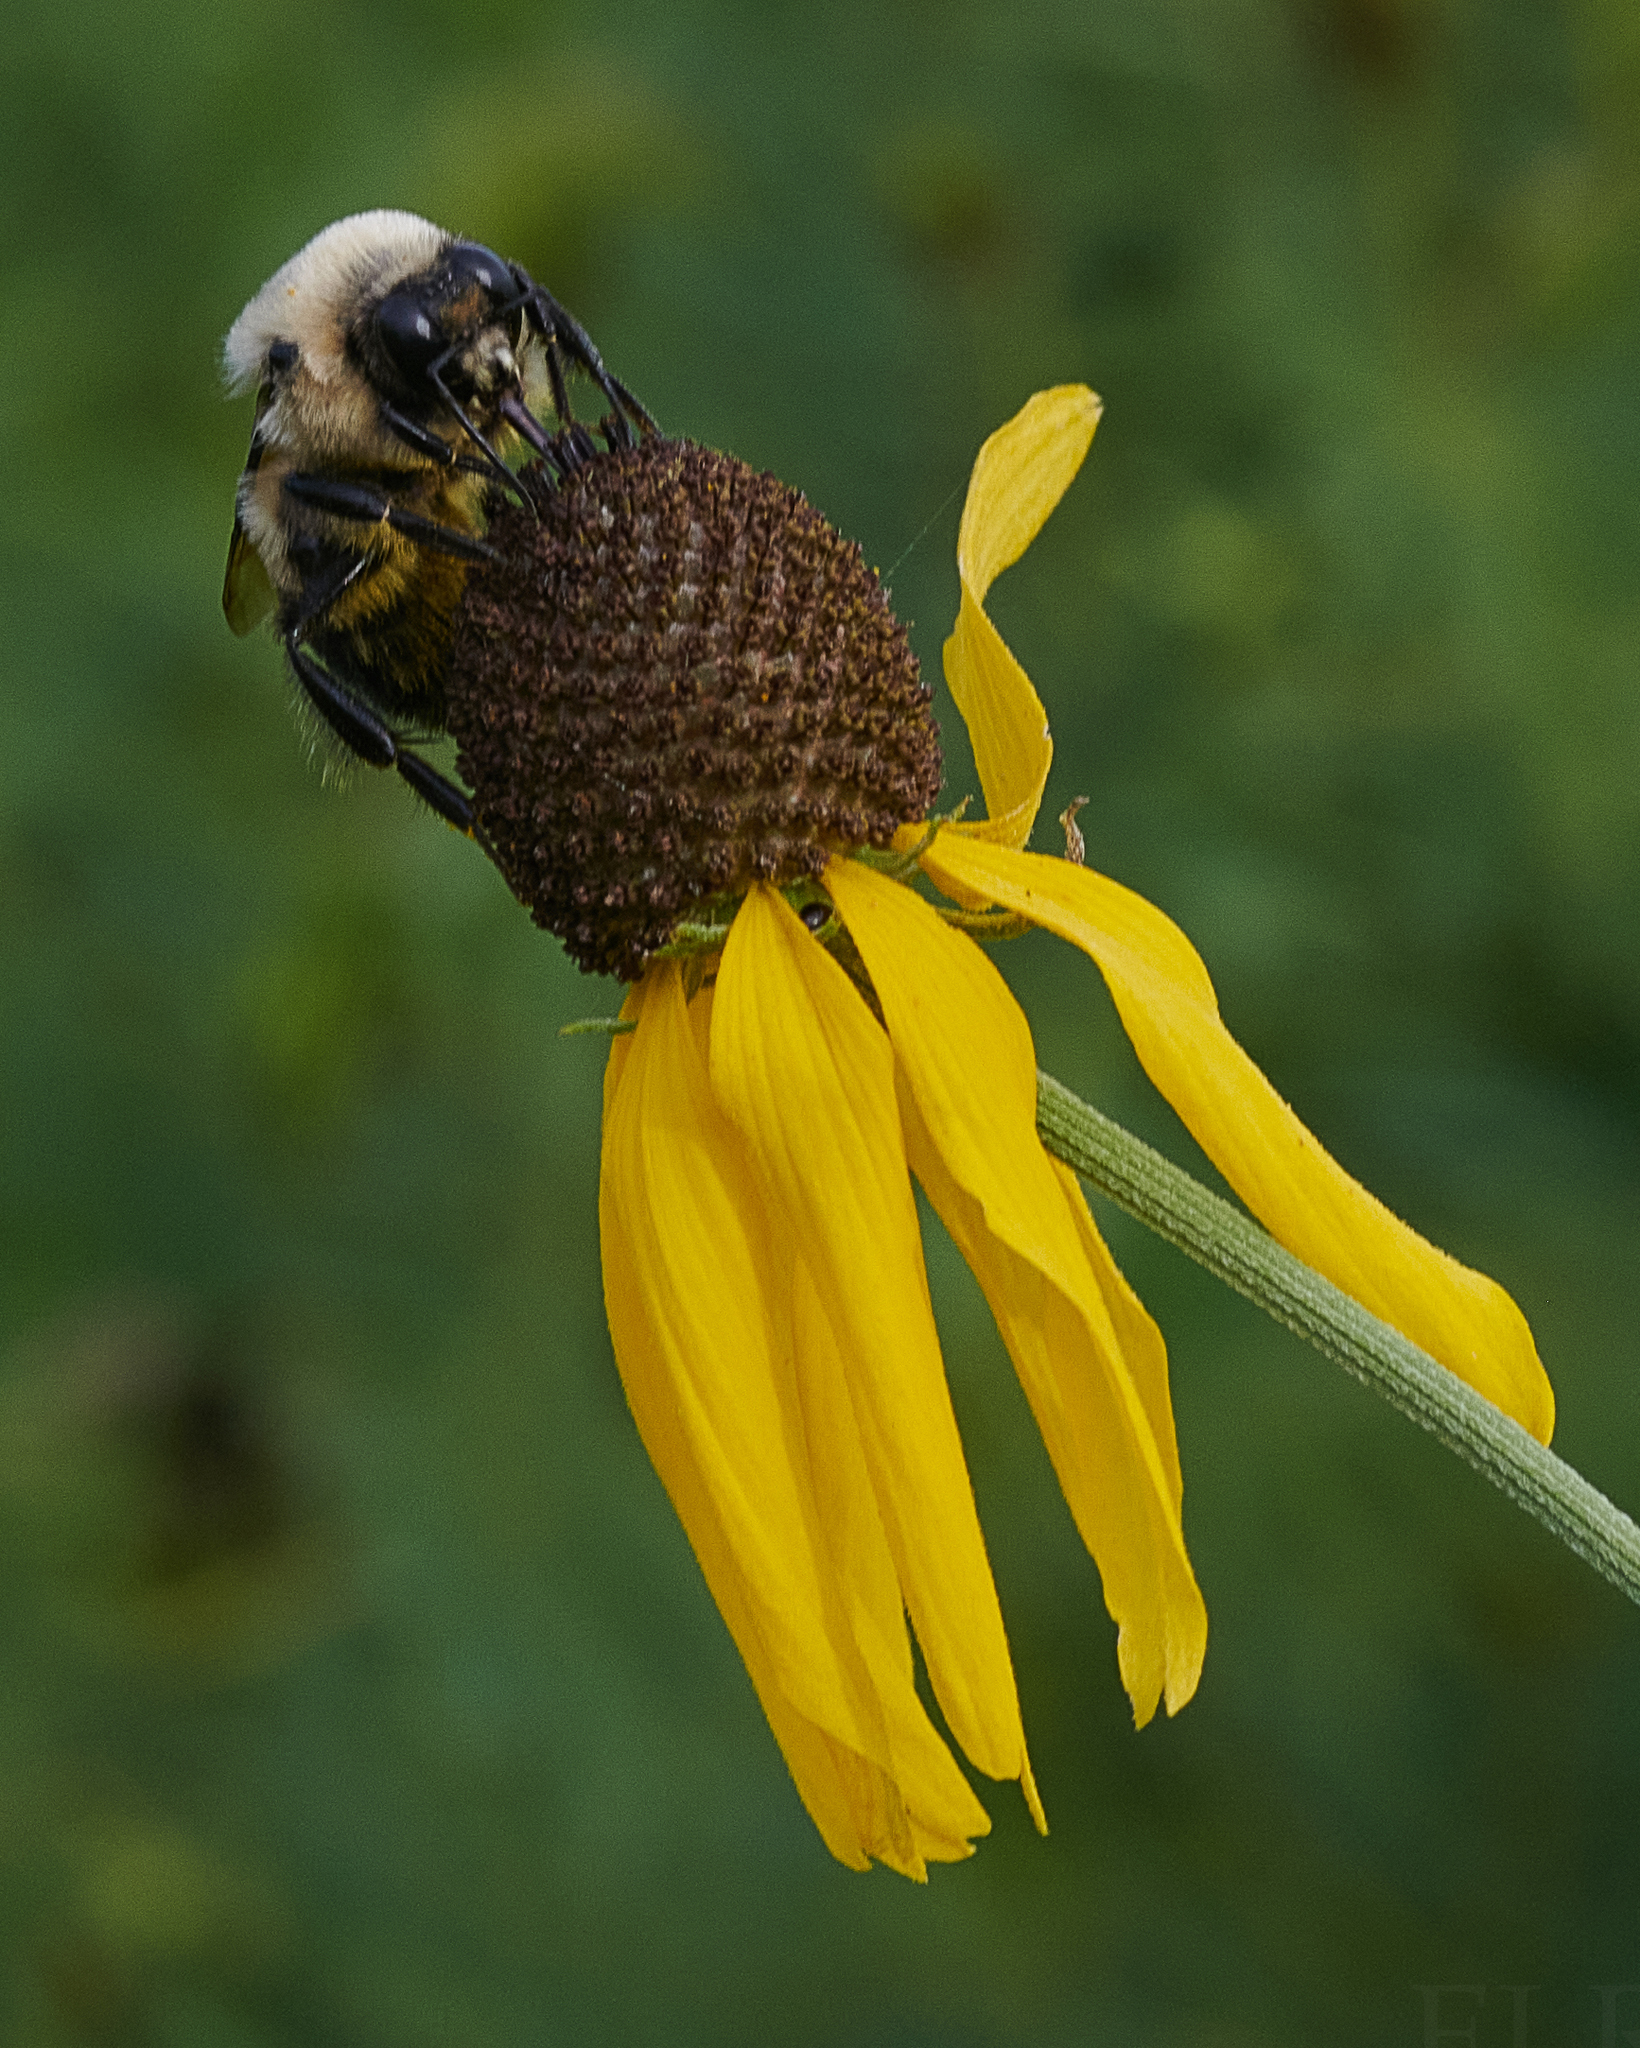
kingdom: Animalia
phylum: Arthropoda
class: Insecta
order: Hymenoptera
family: Apidae
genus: Bombus
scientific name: Bombus griseocollis
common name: Brown-belted bumble bee
